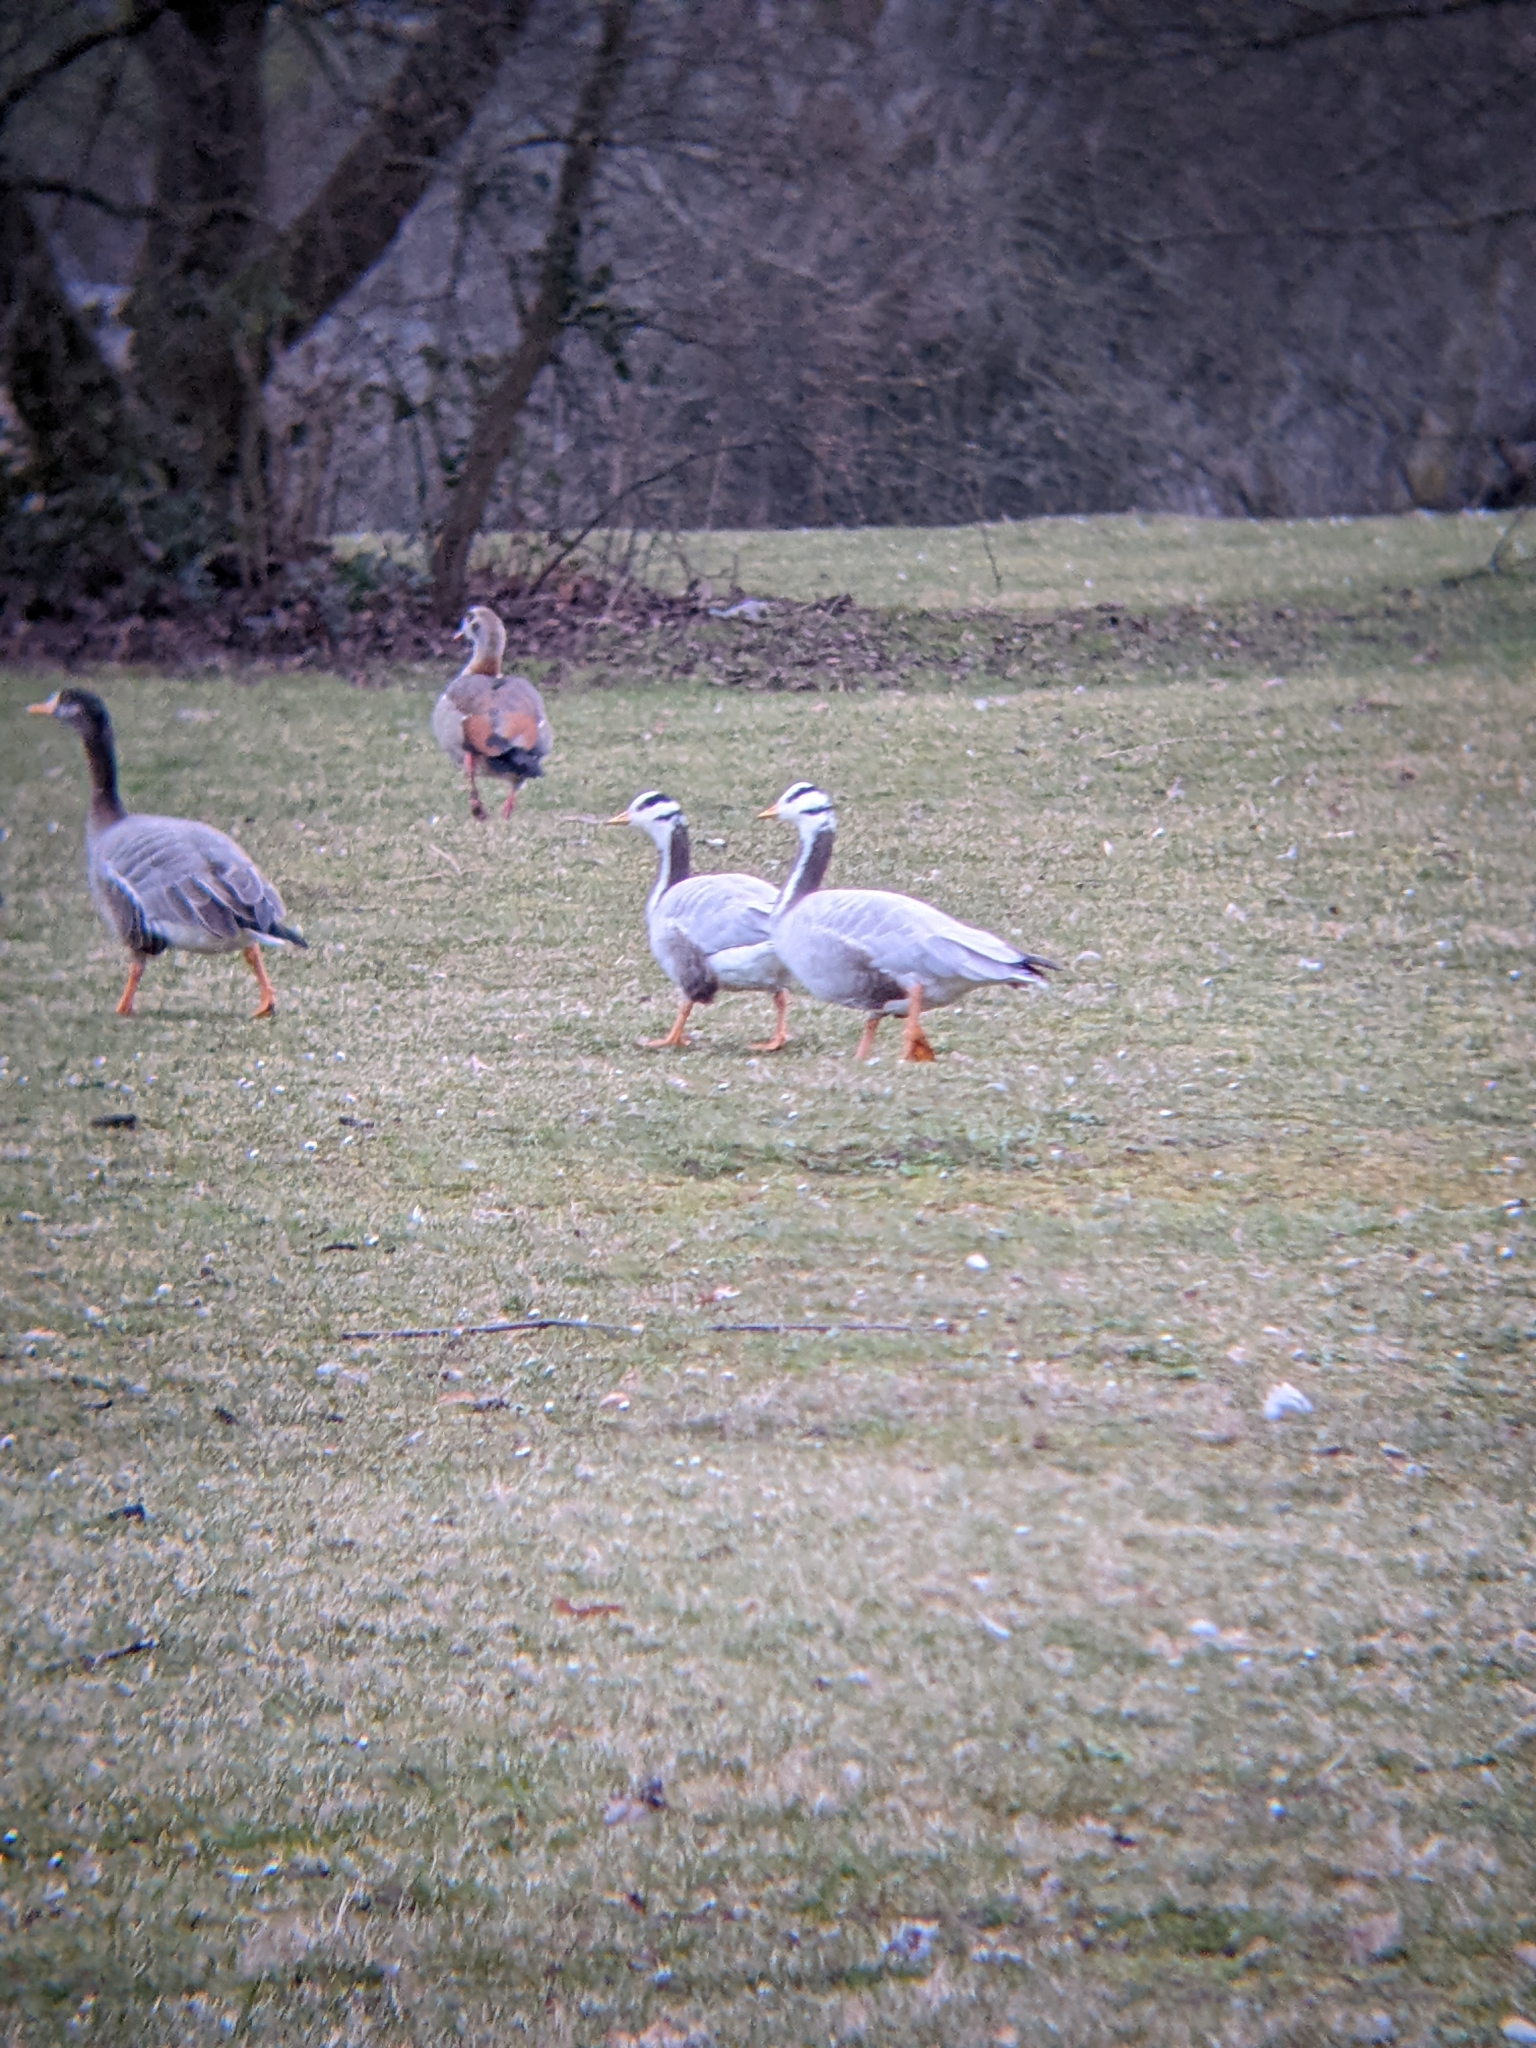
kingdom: Animalia
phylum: Chordata
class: Aves
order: Anseriformes
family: Anatidae
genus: Anser
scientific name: Anser indicus
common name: Bar-headed goose
